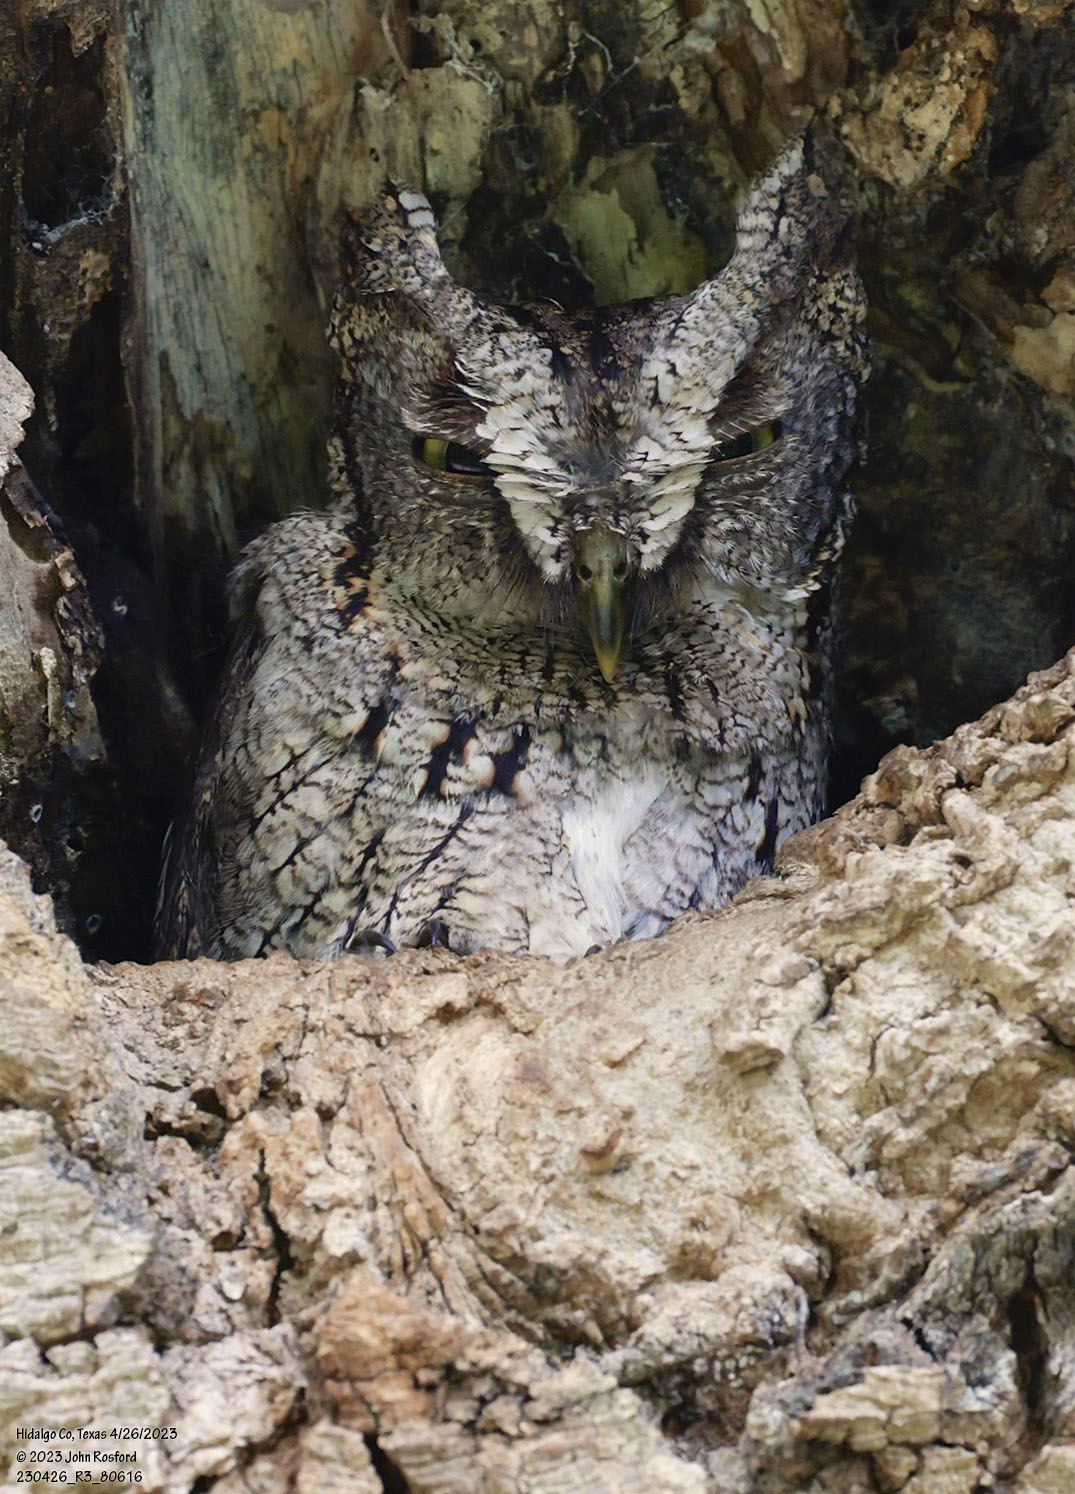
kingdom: Animalia
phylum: Chordata
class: Aves
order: Strigiformes
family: Strigidae
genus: Megascops
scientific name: Megascops asio
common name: Eastern screech-owl
